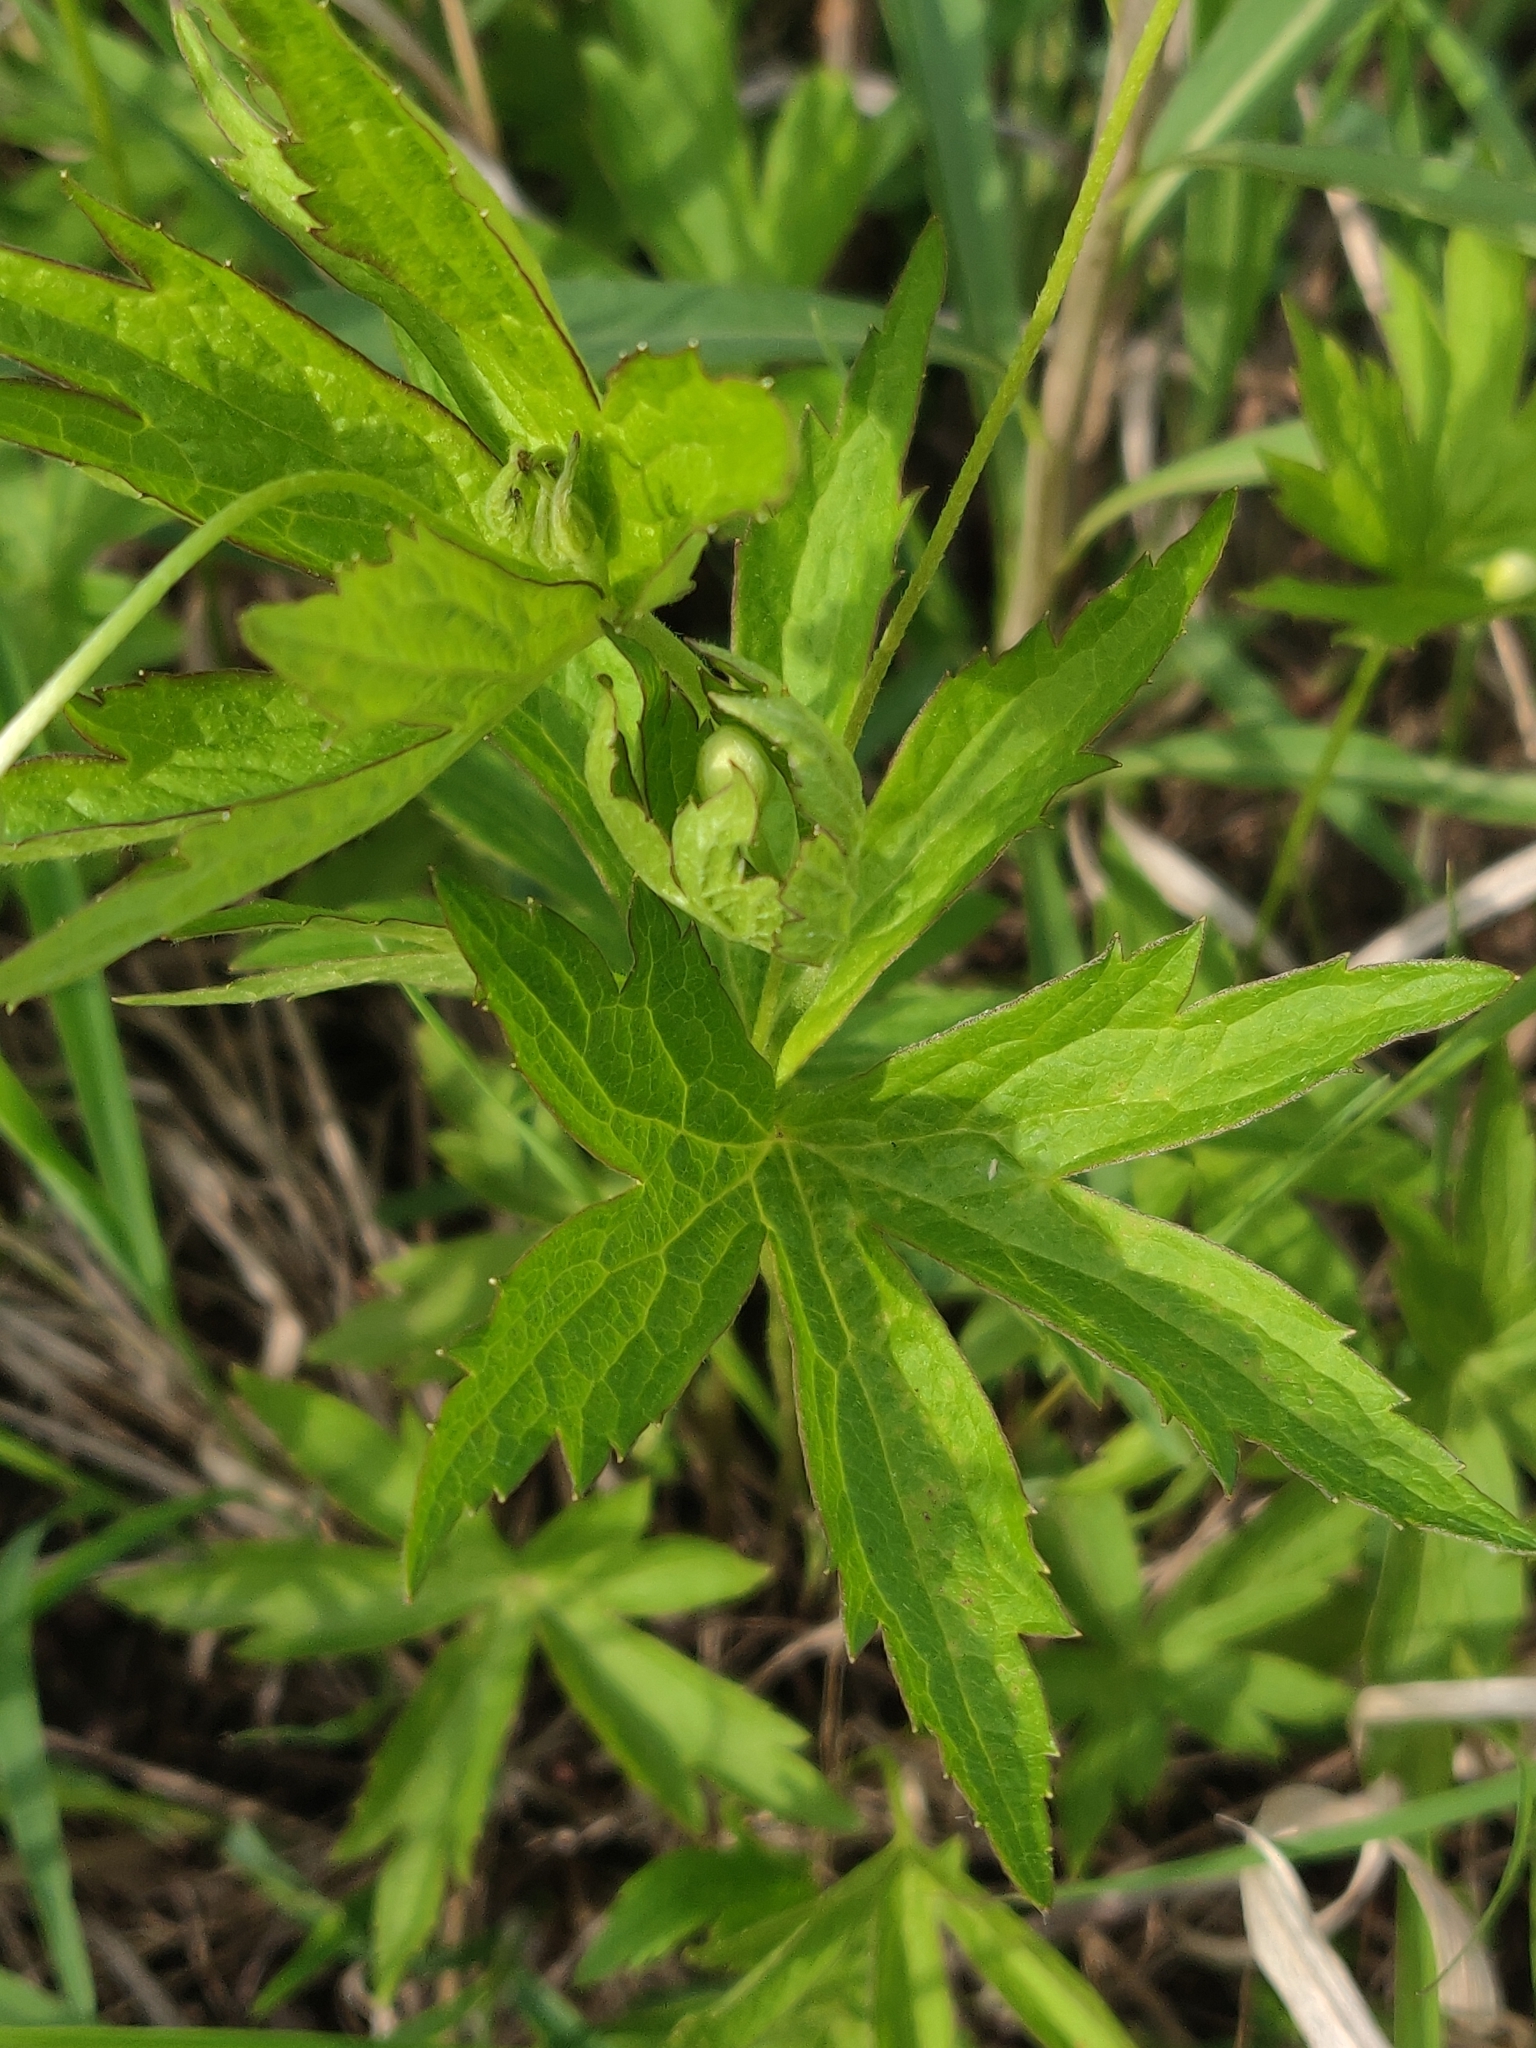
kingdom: Plantae
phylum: Tracheophyta
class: Magnoliopsida
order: Ranunculales
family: Ranunculaceae
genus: Anemonastrum
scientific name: Anemonastrum canadense
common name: Canada anemone
